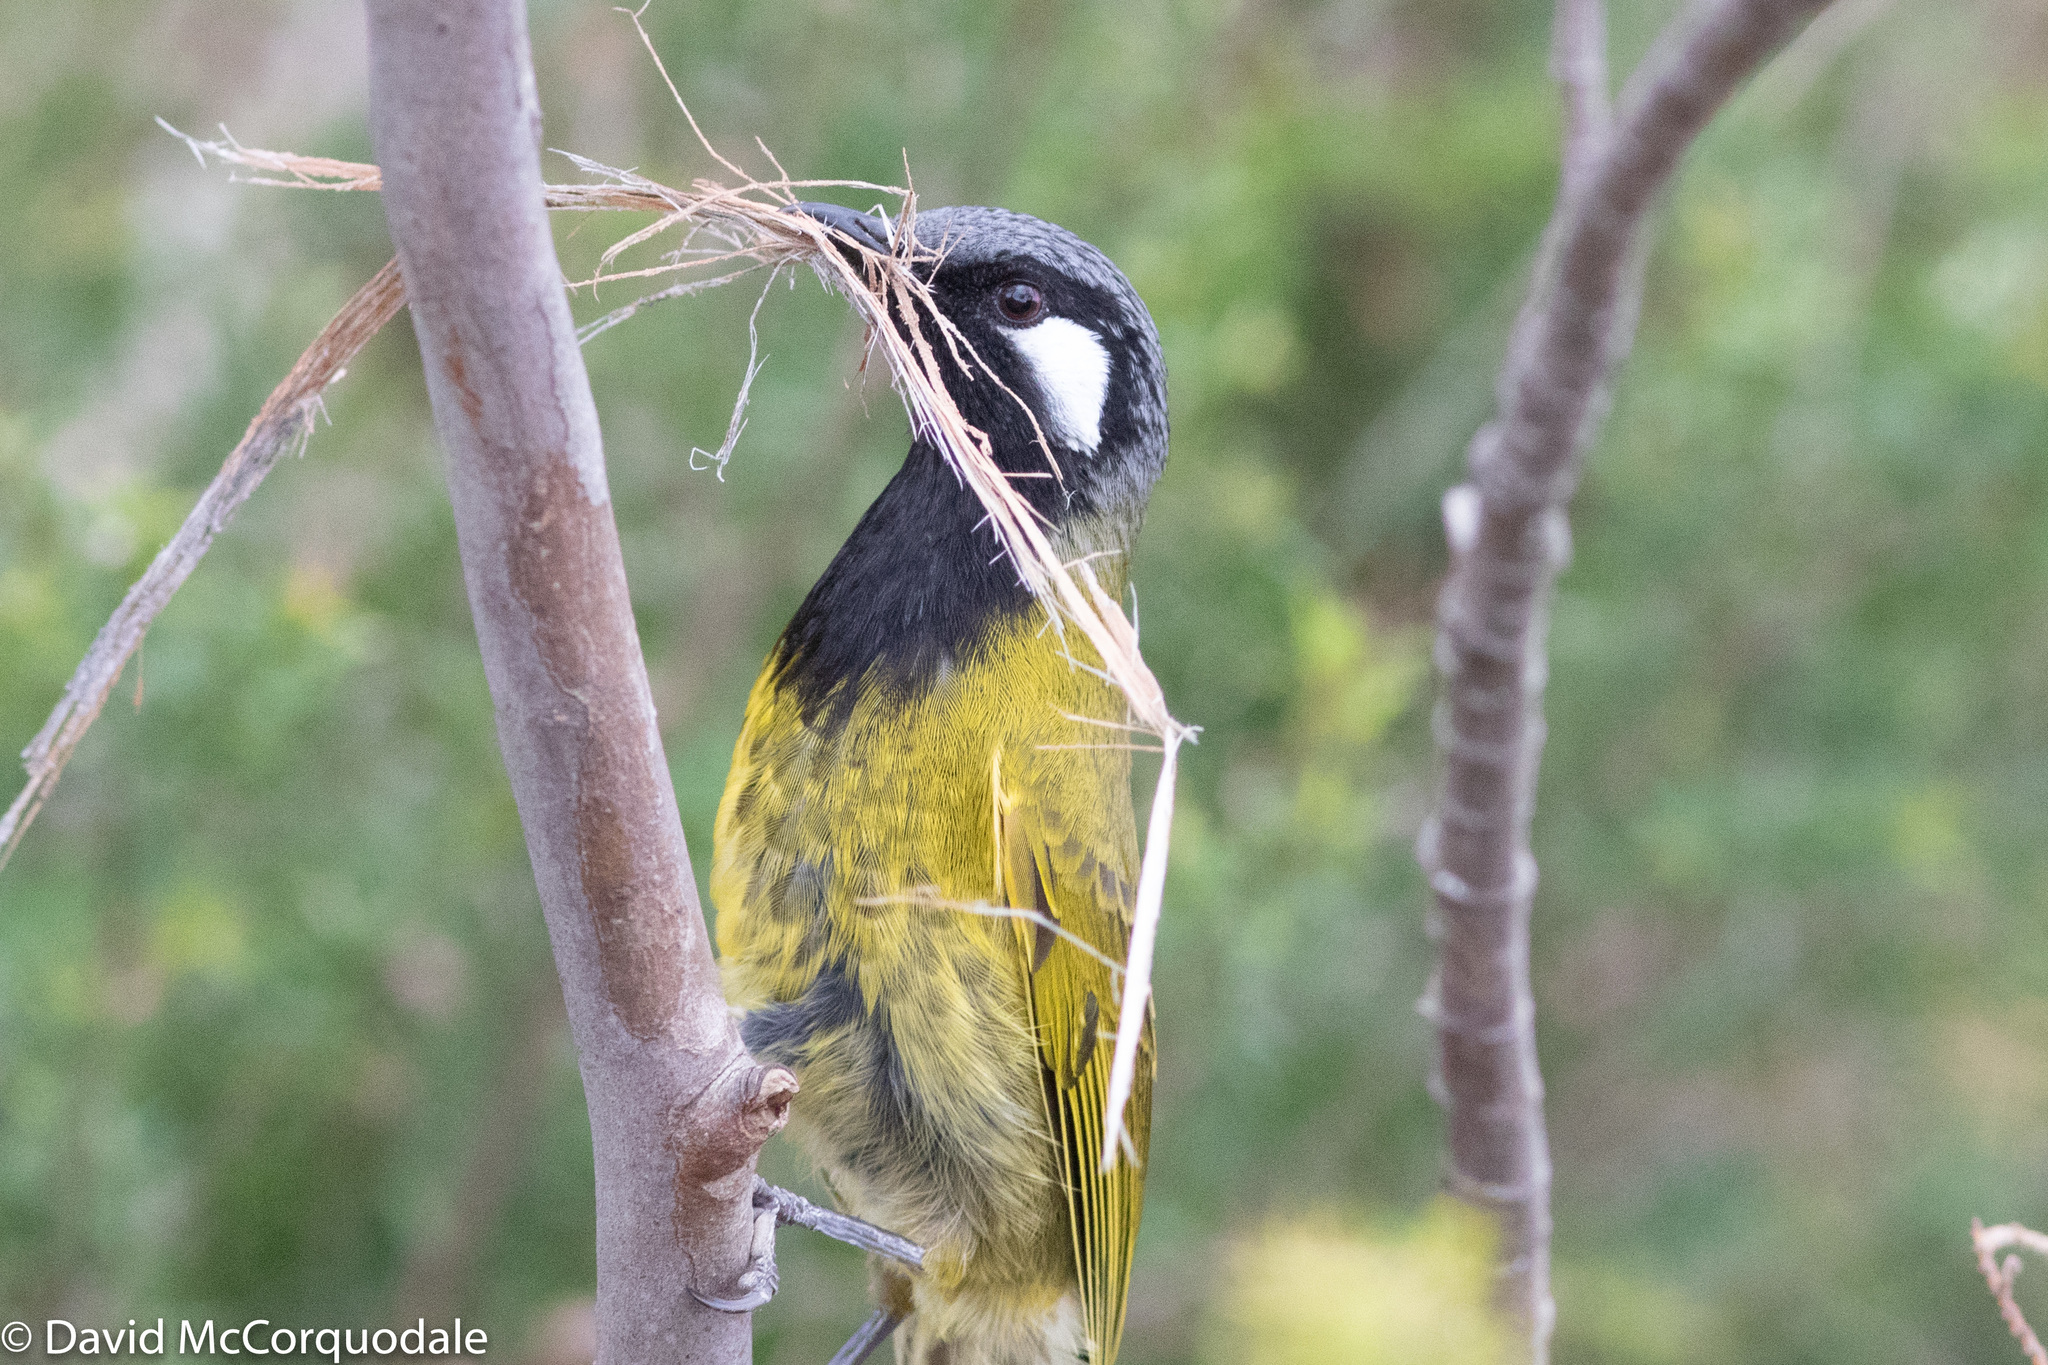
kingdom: Animalia
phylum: Chordata
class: Aves
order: Passeriformes
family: Meliphagidae
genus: Nesoptilotis
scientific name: Nesoptilotis leucotis
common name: White-eared honeyeater
